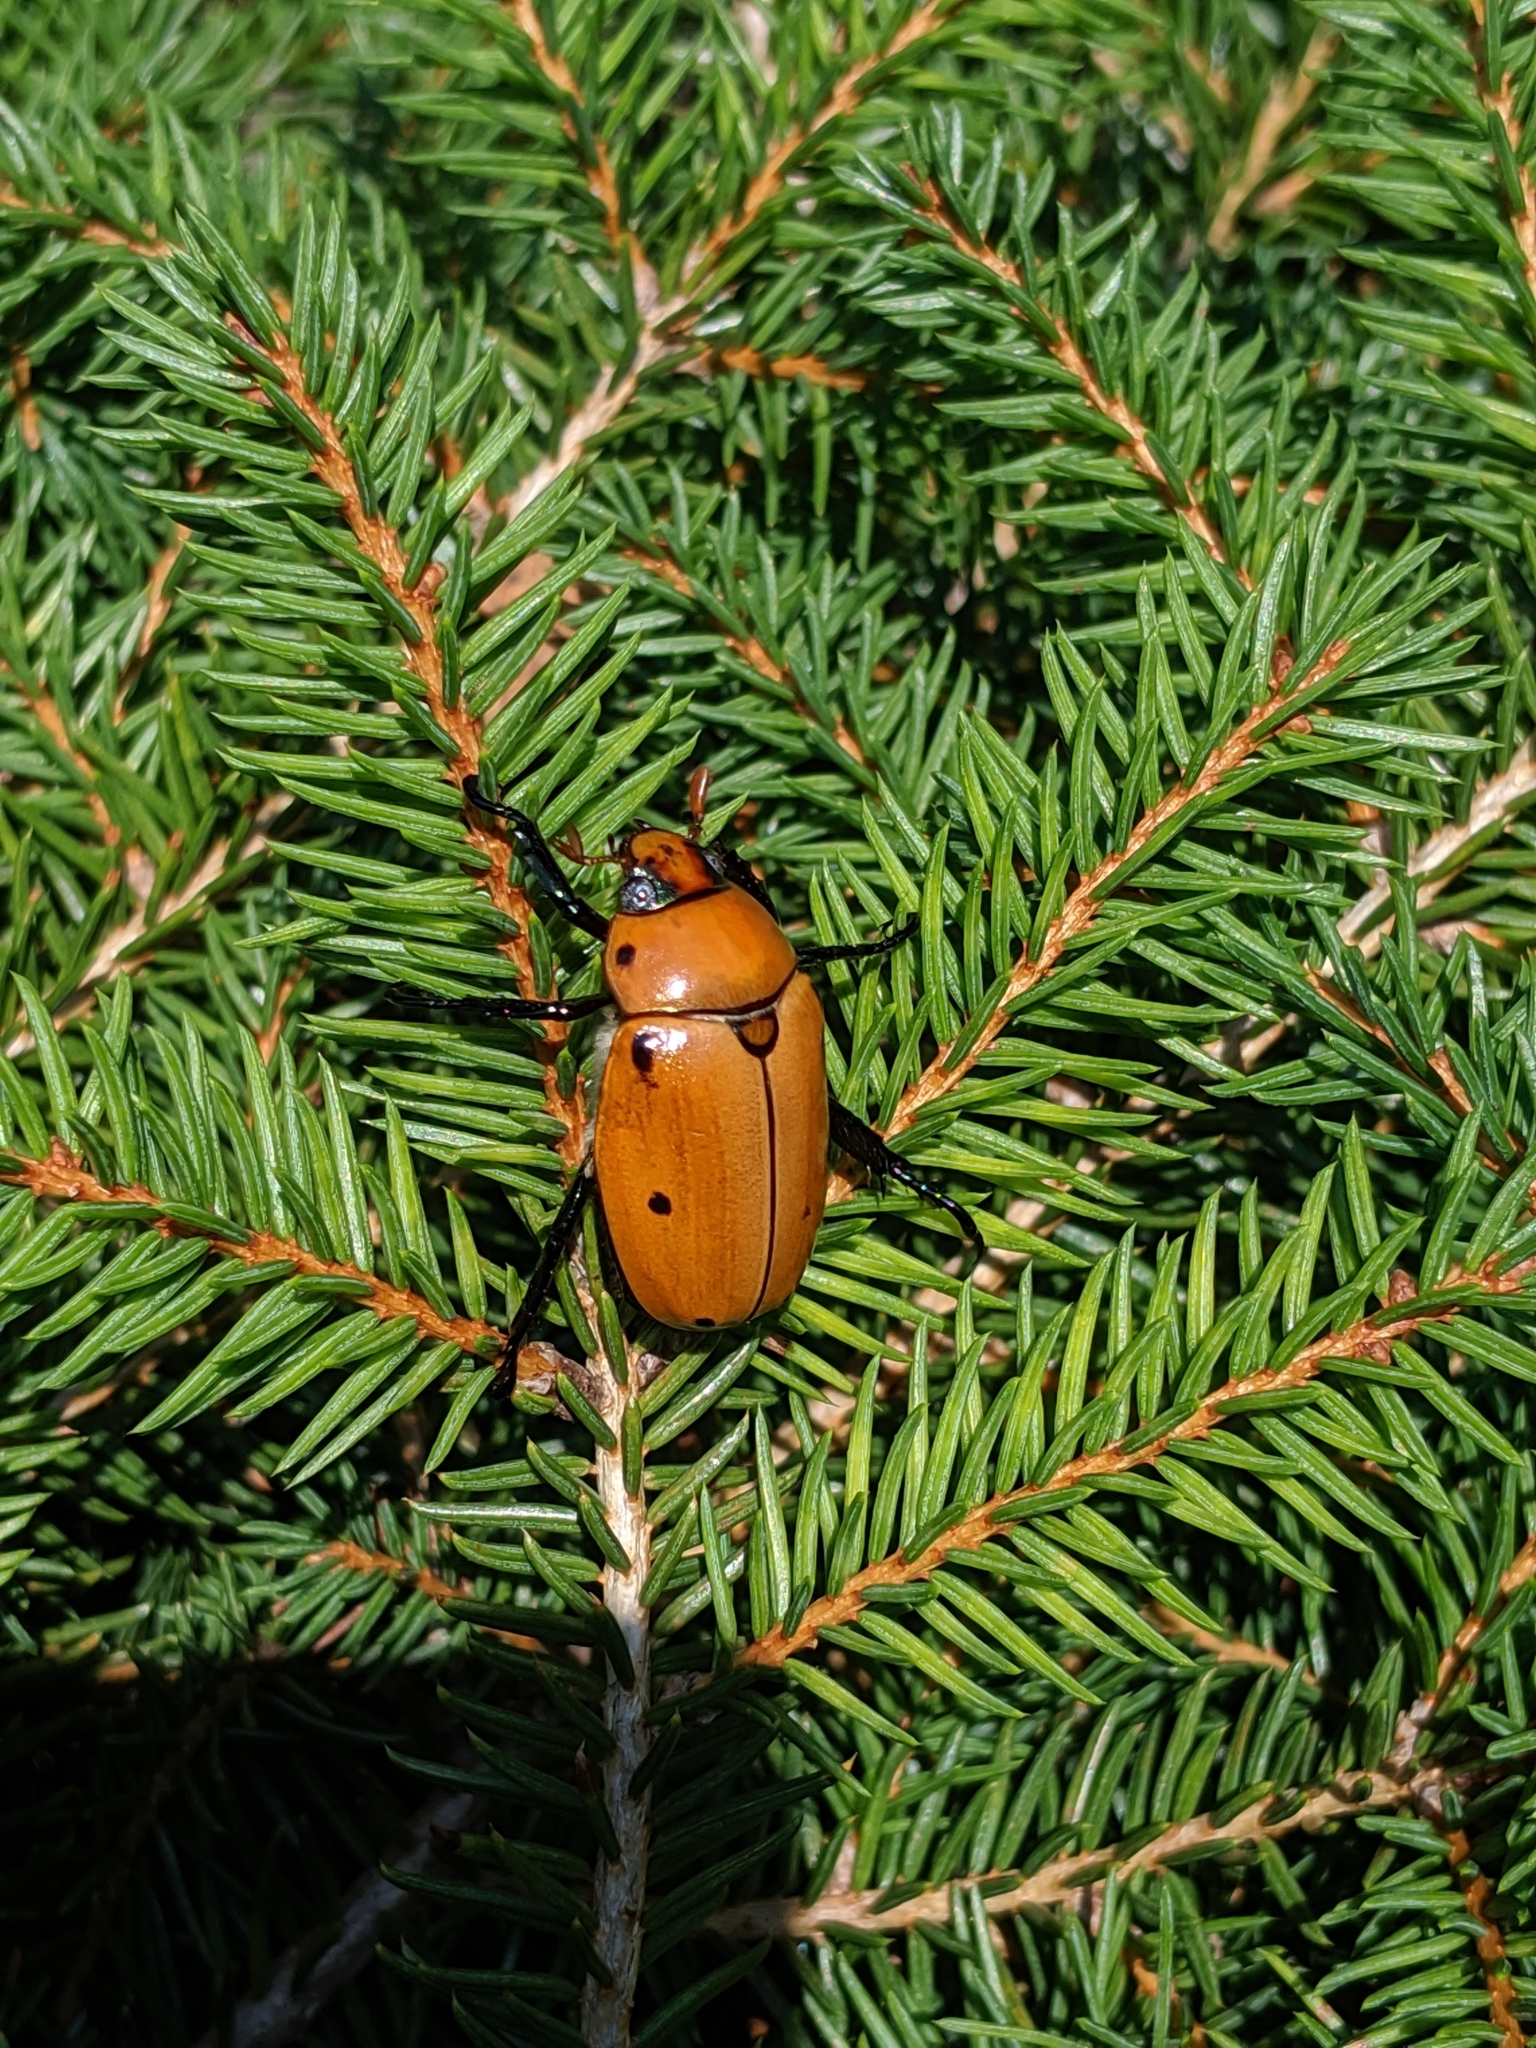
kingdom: Animalia
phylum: Arthropoda
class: Insecta
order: Coleoptera
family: Scarabaeidae
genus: Pelidnota
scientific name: Pelidnota punctata
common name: Grapevine beetle
